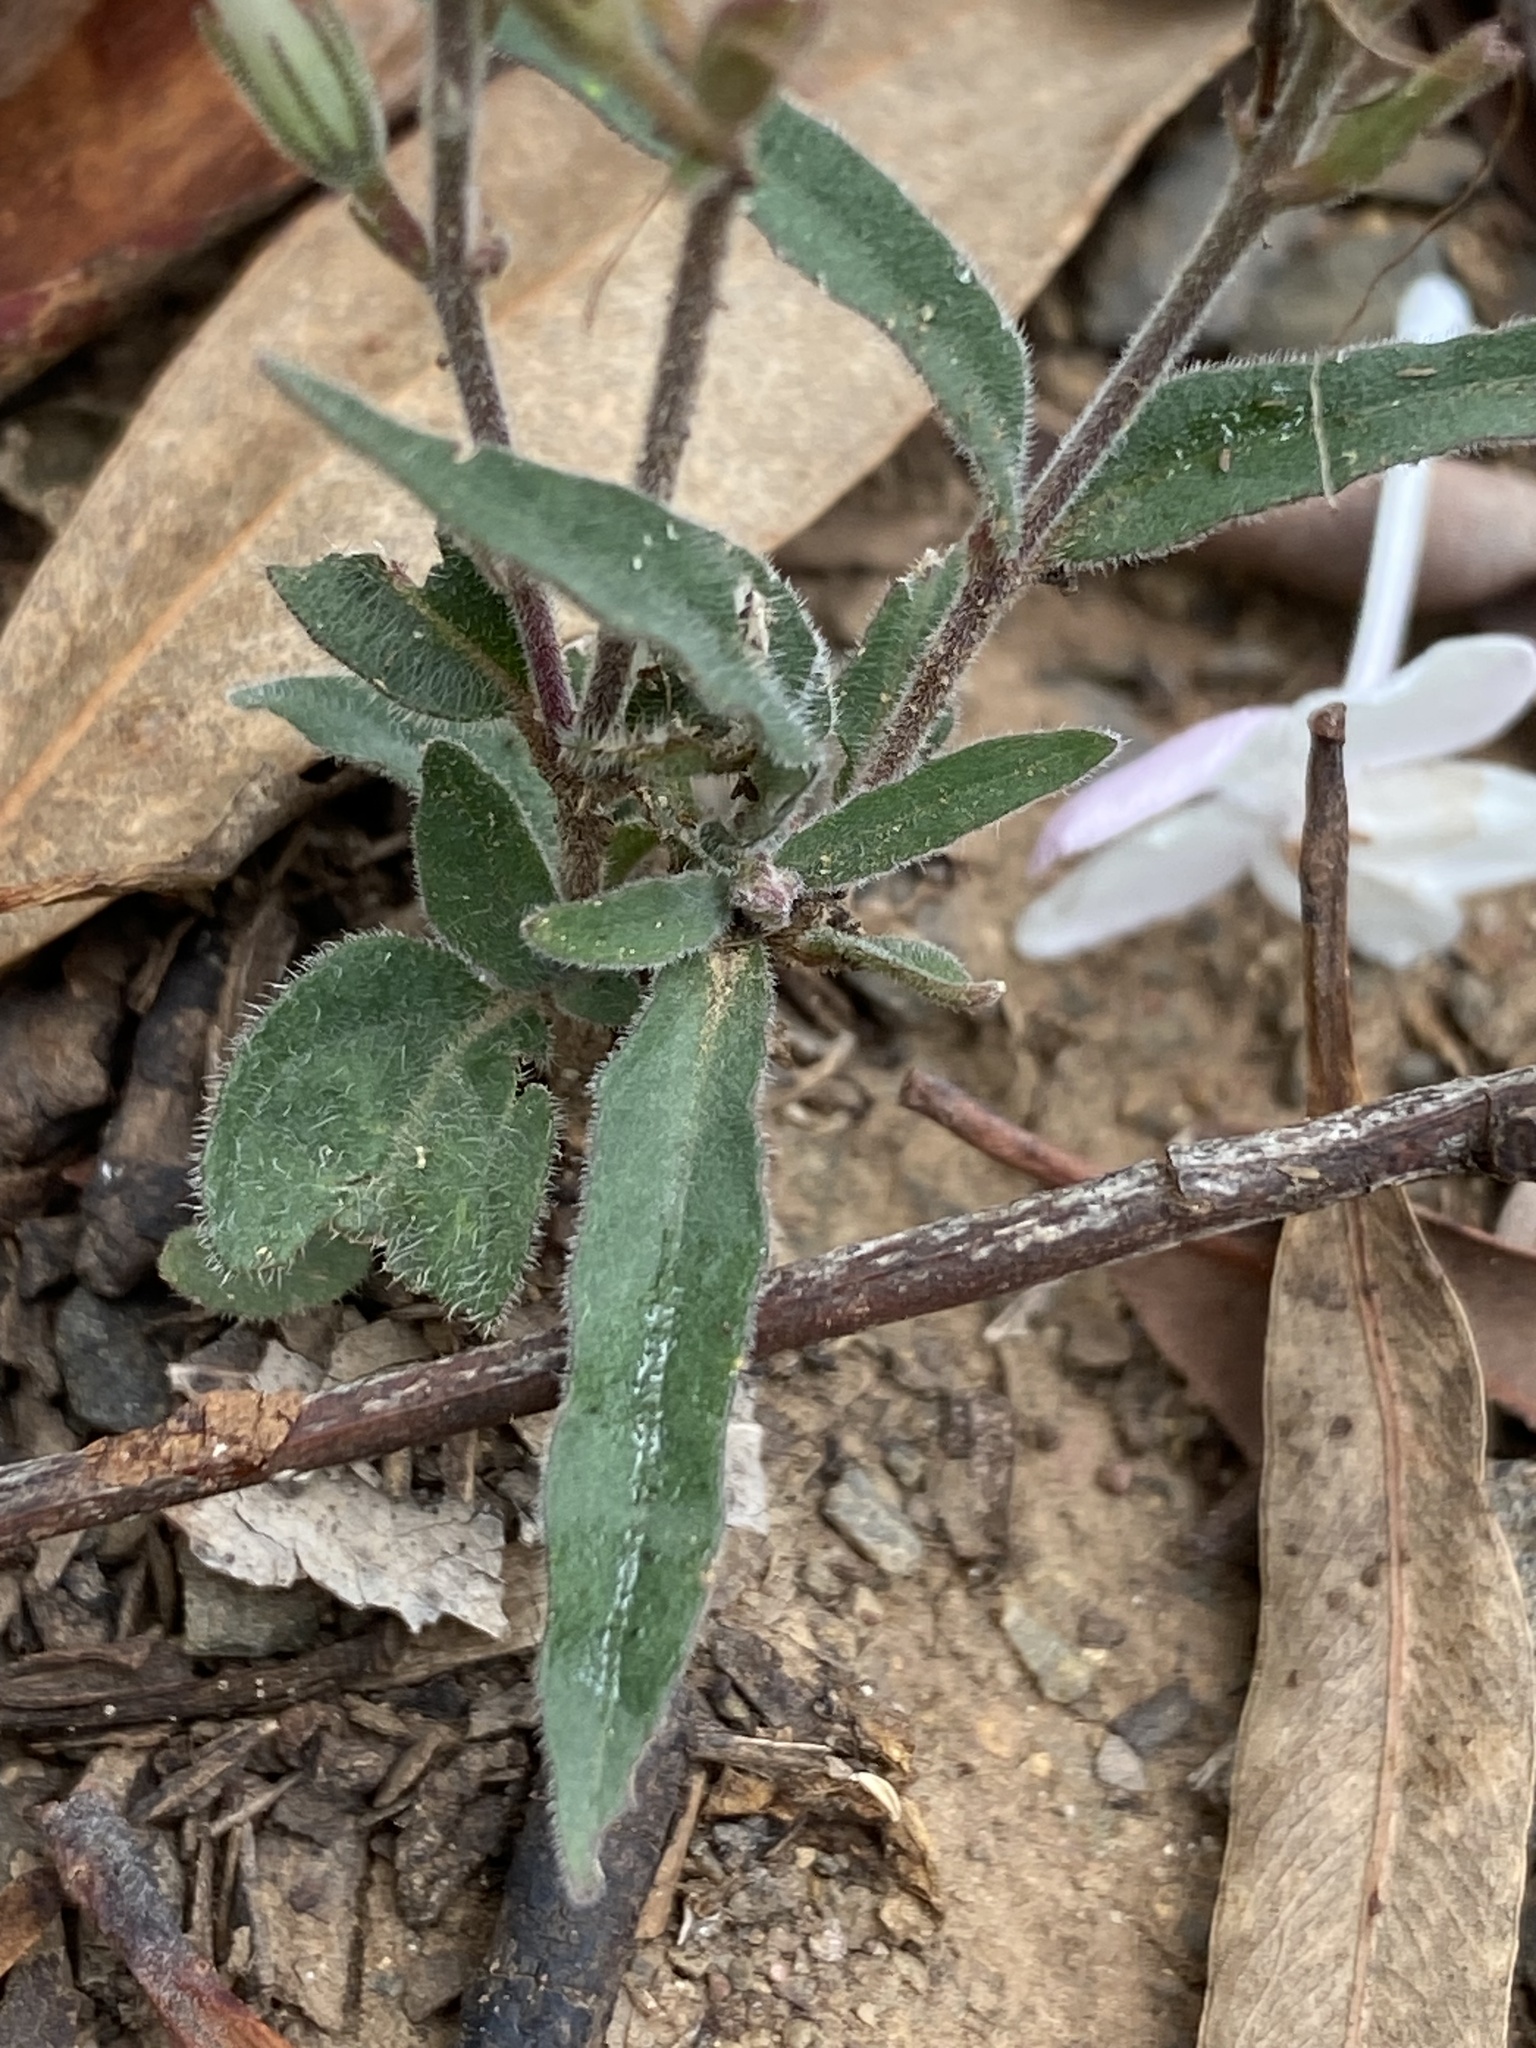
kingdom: Plantae
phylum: Tracheophyta
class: Magnoliopsida
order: Lamiales
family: Acanthaceae
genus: Pseuderanthemum
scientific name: Pseuderanthemum variabile
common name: Night and afternoon
